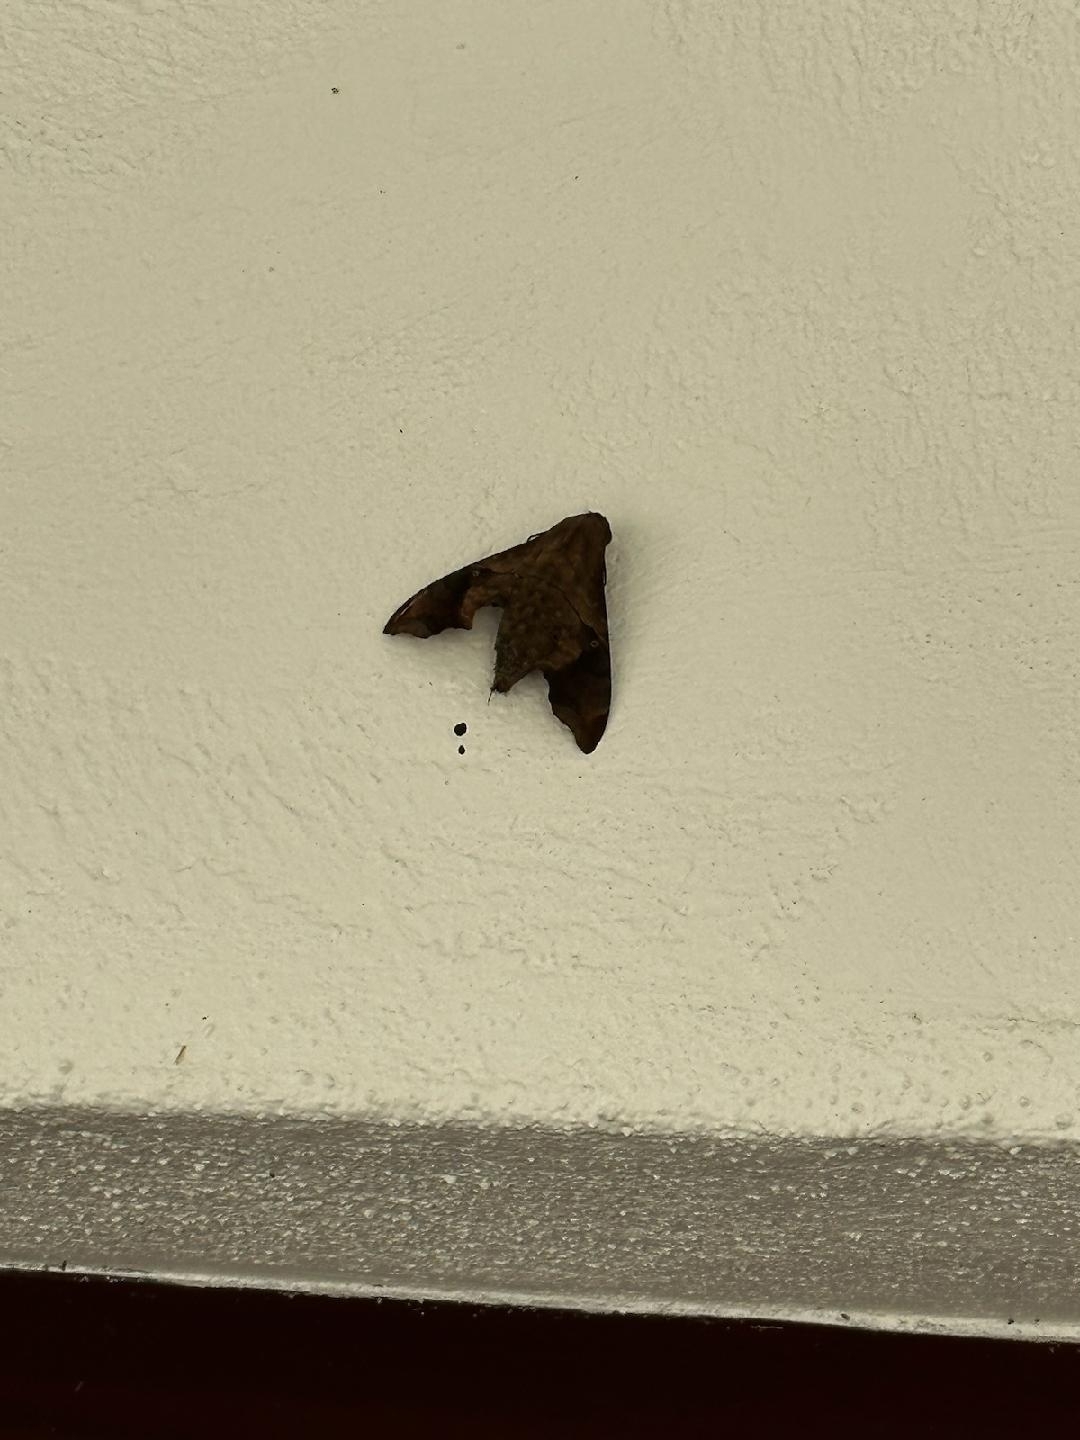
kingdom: Animalia
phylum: Arthropoda
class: Insecta
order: Lepidoptera
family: Sphingidae
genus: Enyo
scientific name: Enyo lugubris
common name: Mournful sphinx
